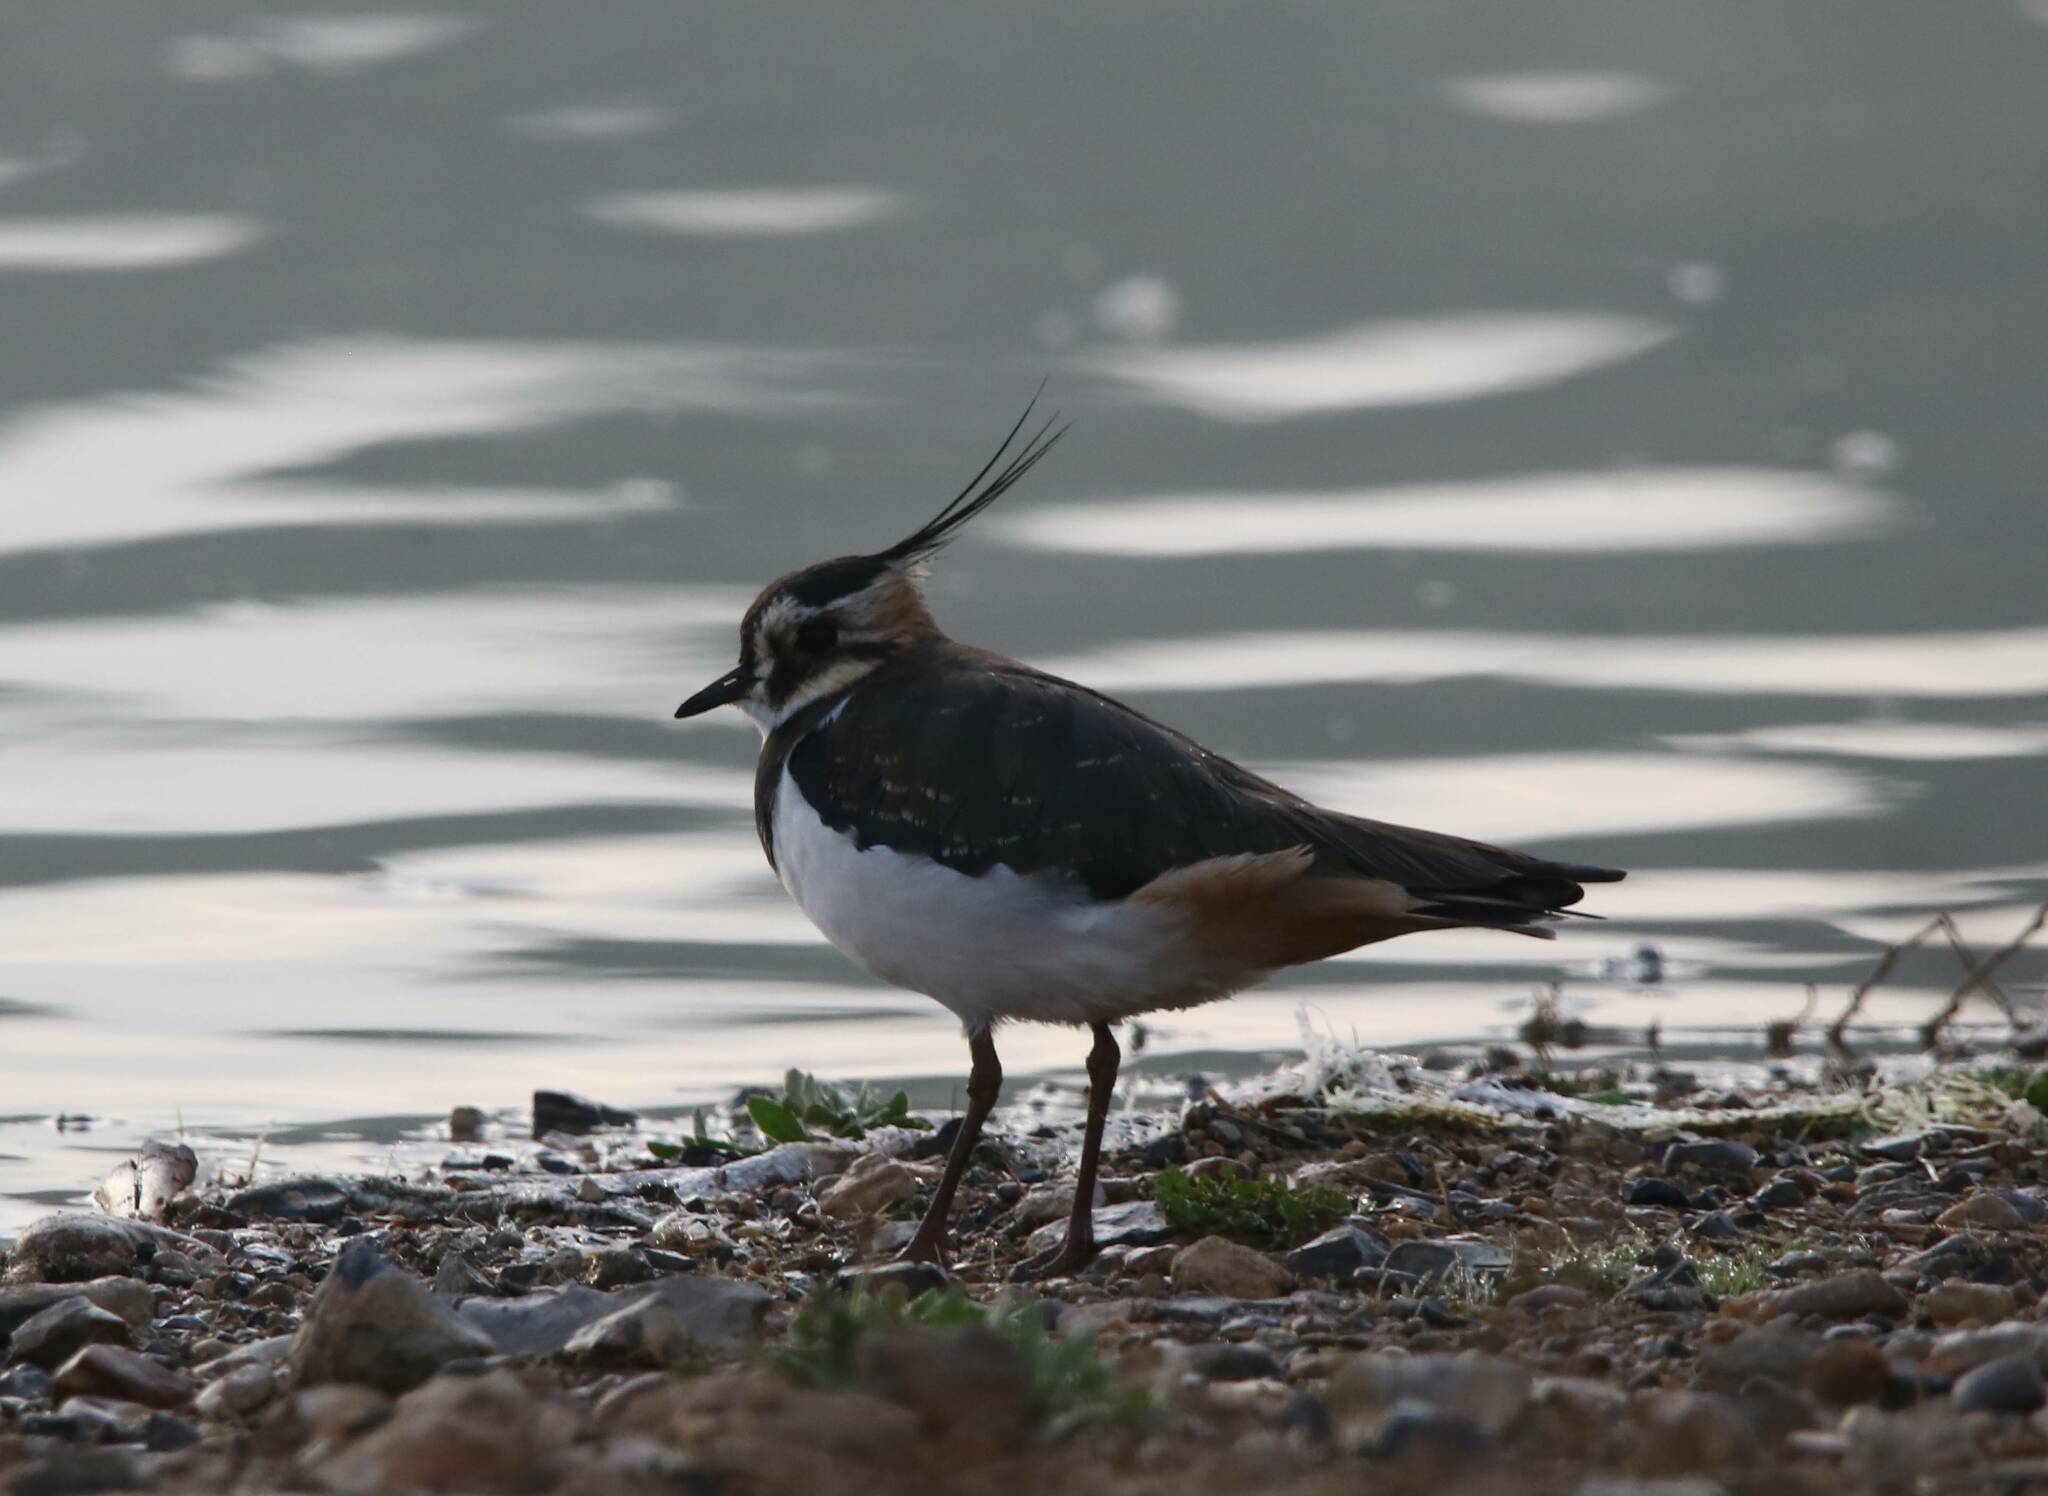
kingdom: Animalia
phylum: Chordata
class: Aves
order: Charadriiformes
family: Charadriidae
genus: Vanellus
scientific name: Vanellus vanellus
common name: Northern lapwing
